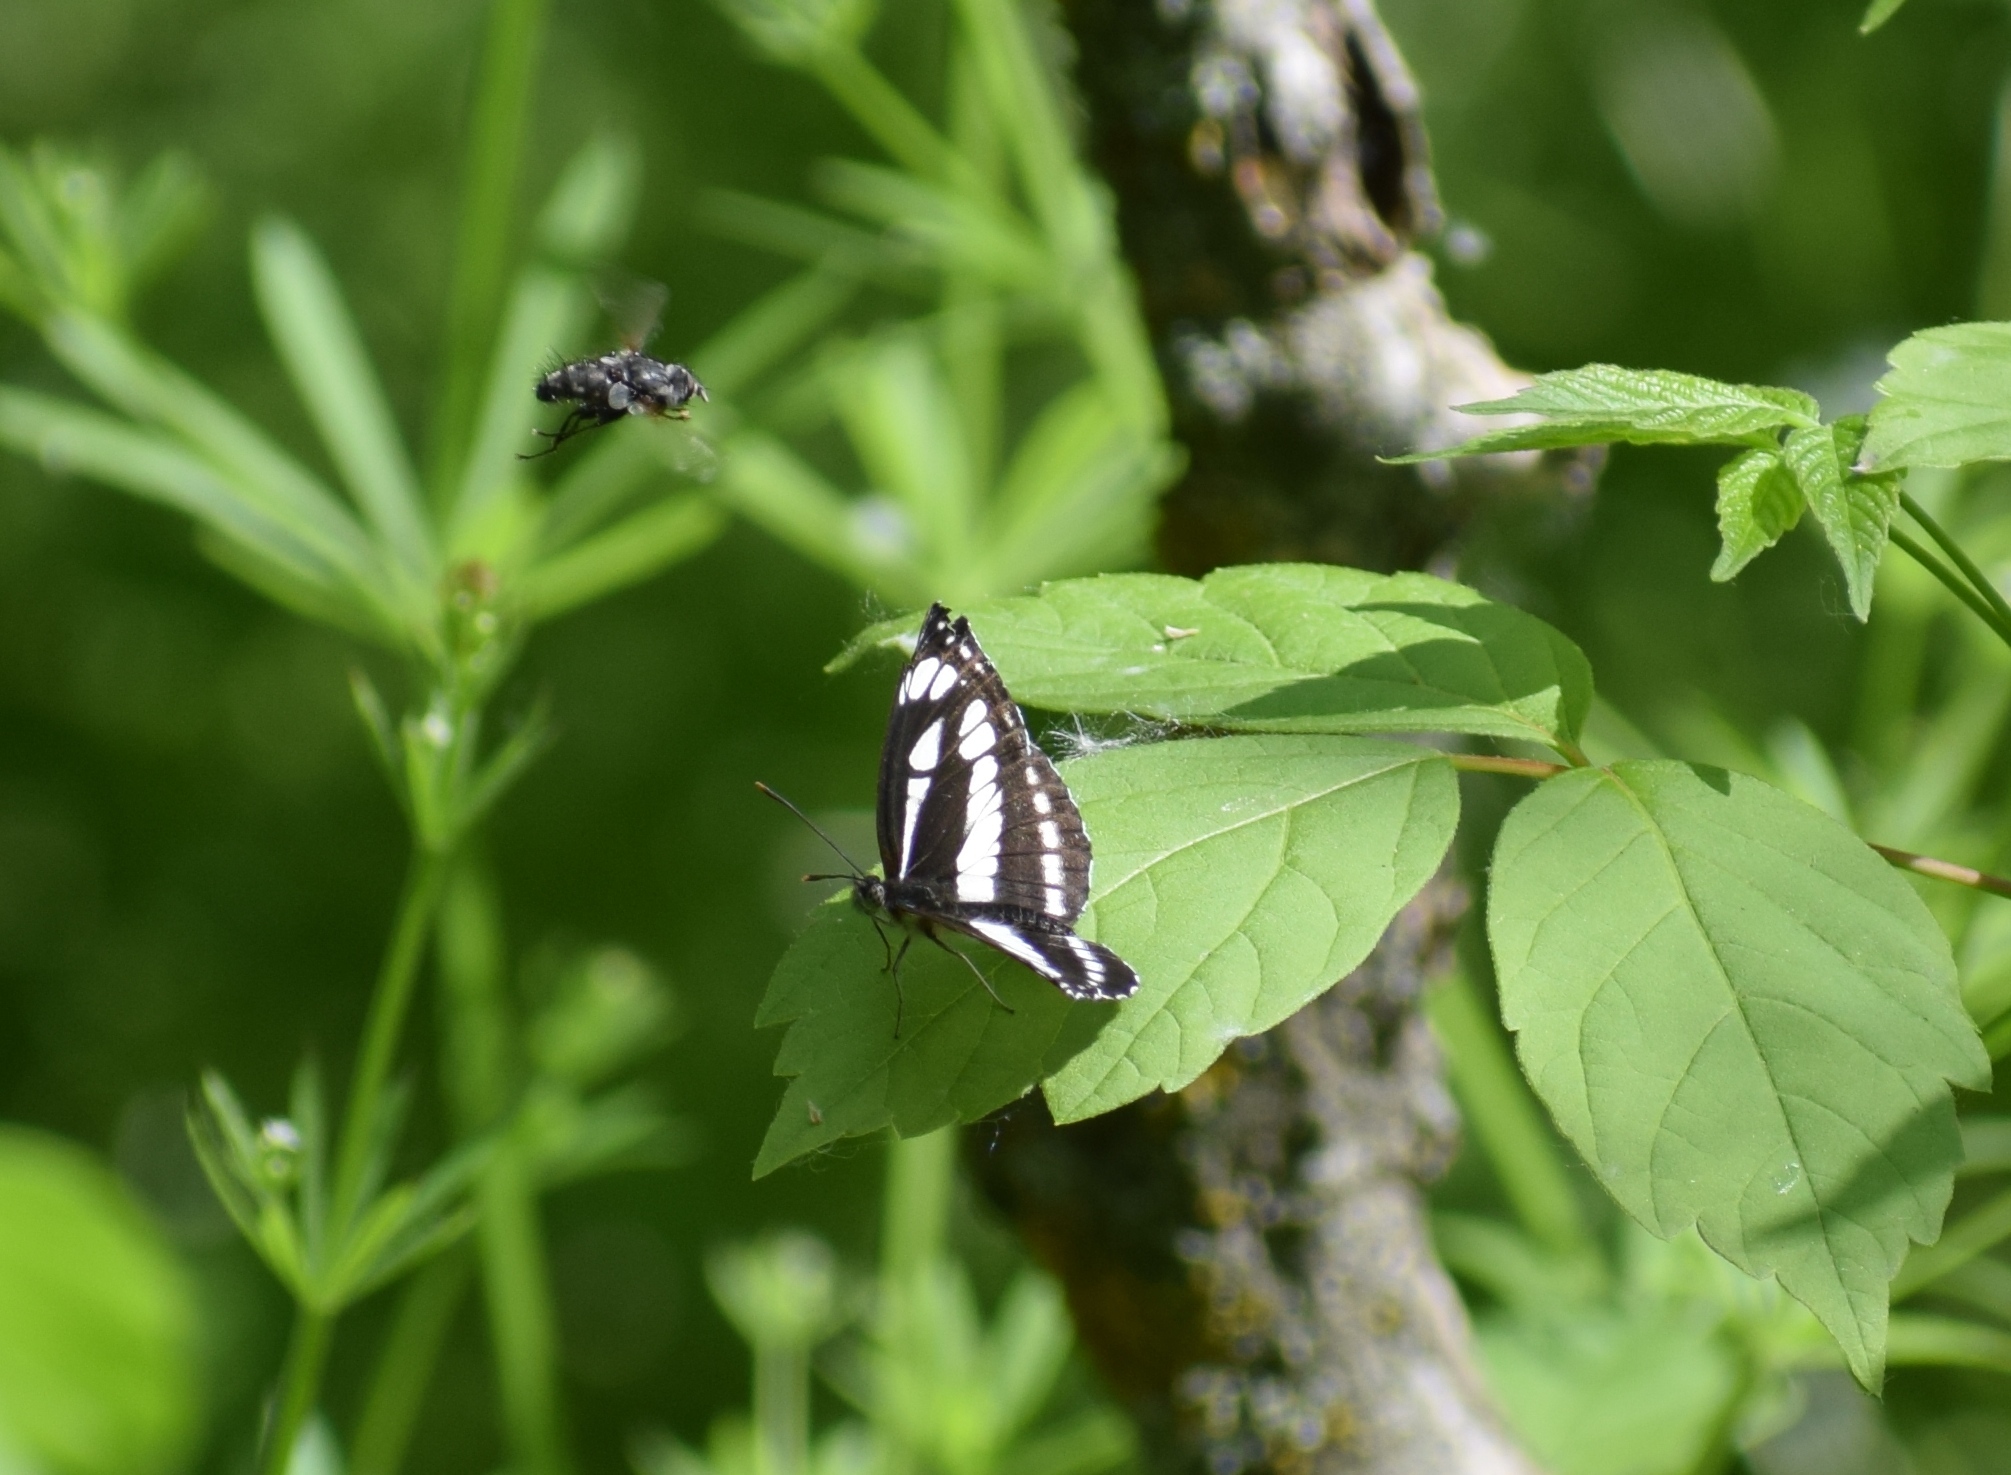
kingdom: Animalia
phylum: Arthropoda
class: Insecta
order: Lepidoptera
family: Nymphalidae
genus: Neptis
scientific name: Neptis sappho
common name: Common glider
